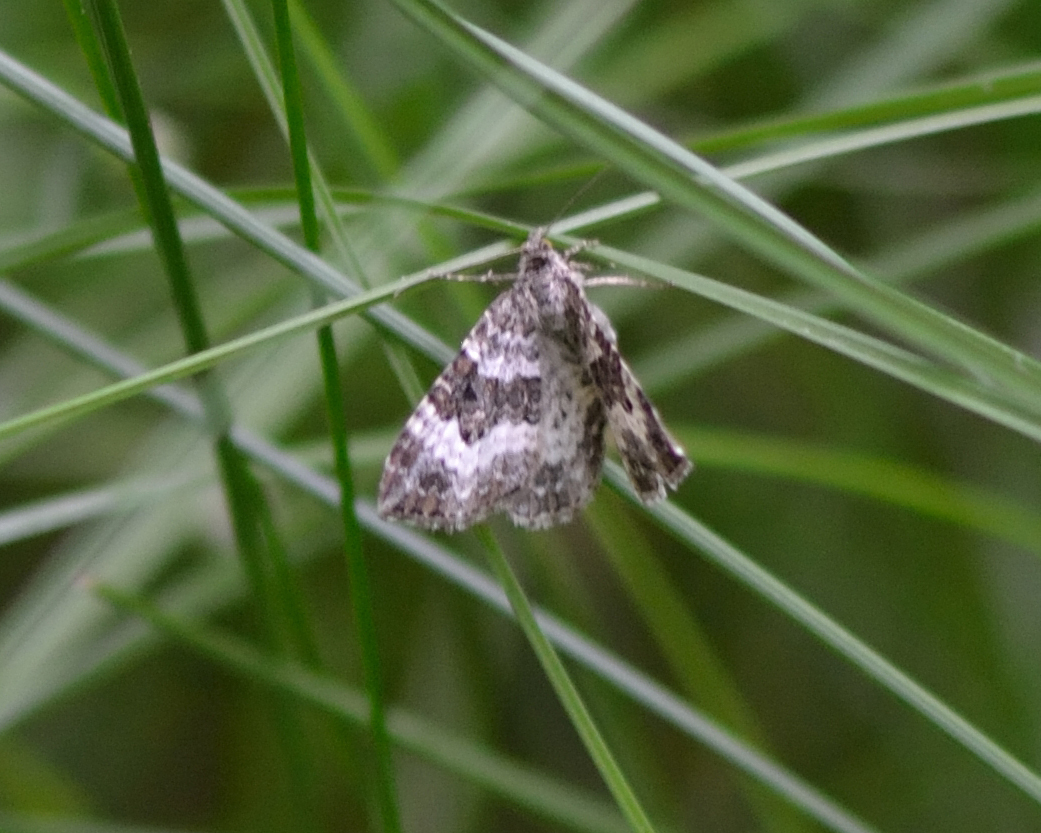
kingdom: Animalia
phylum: Arthropoda
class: Insecta
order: Lepidoptera
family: Geometridae
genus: Epirrhoe
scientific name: Epirrhoe alternata
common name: Common carpet
